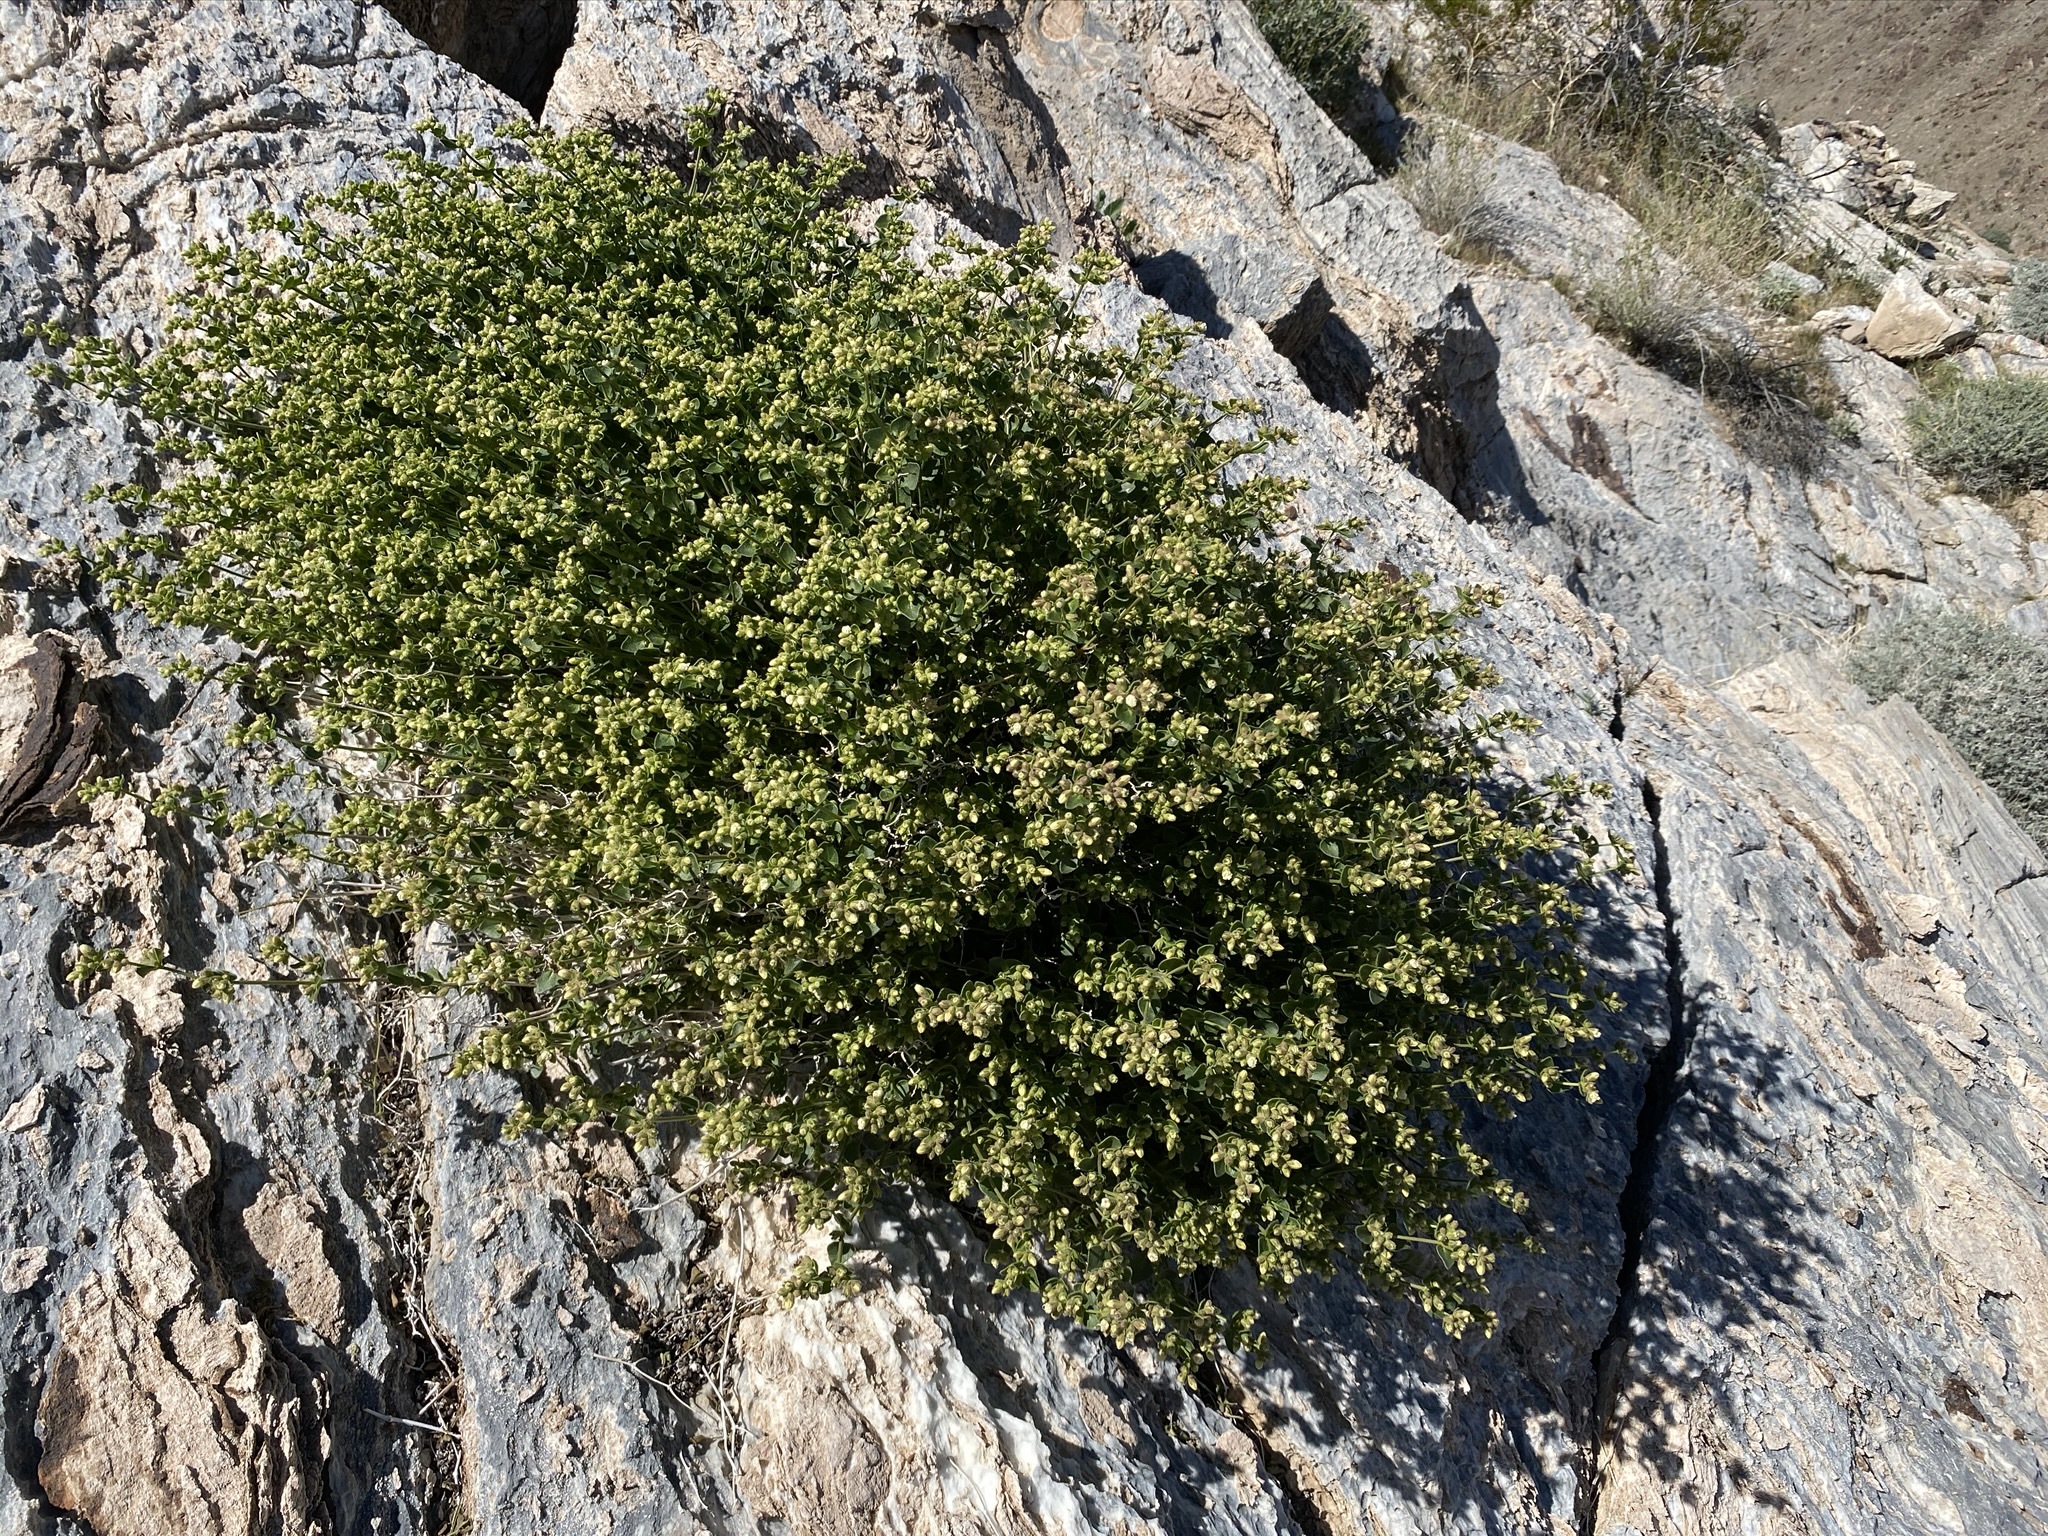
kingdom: Plantae
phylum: Tracheophyta
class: Magnoliopsida
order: Caryophyllales
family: Nyctaginaceae
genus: Mirabilis
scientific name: Mirabilis laevis
